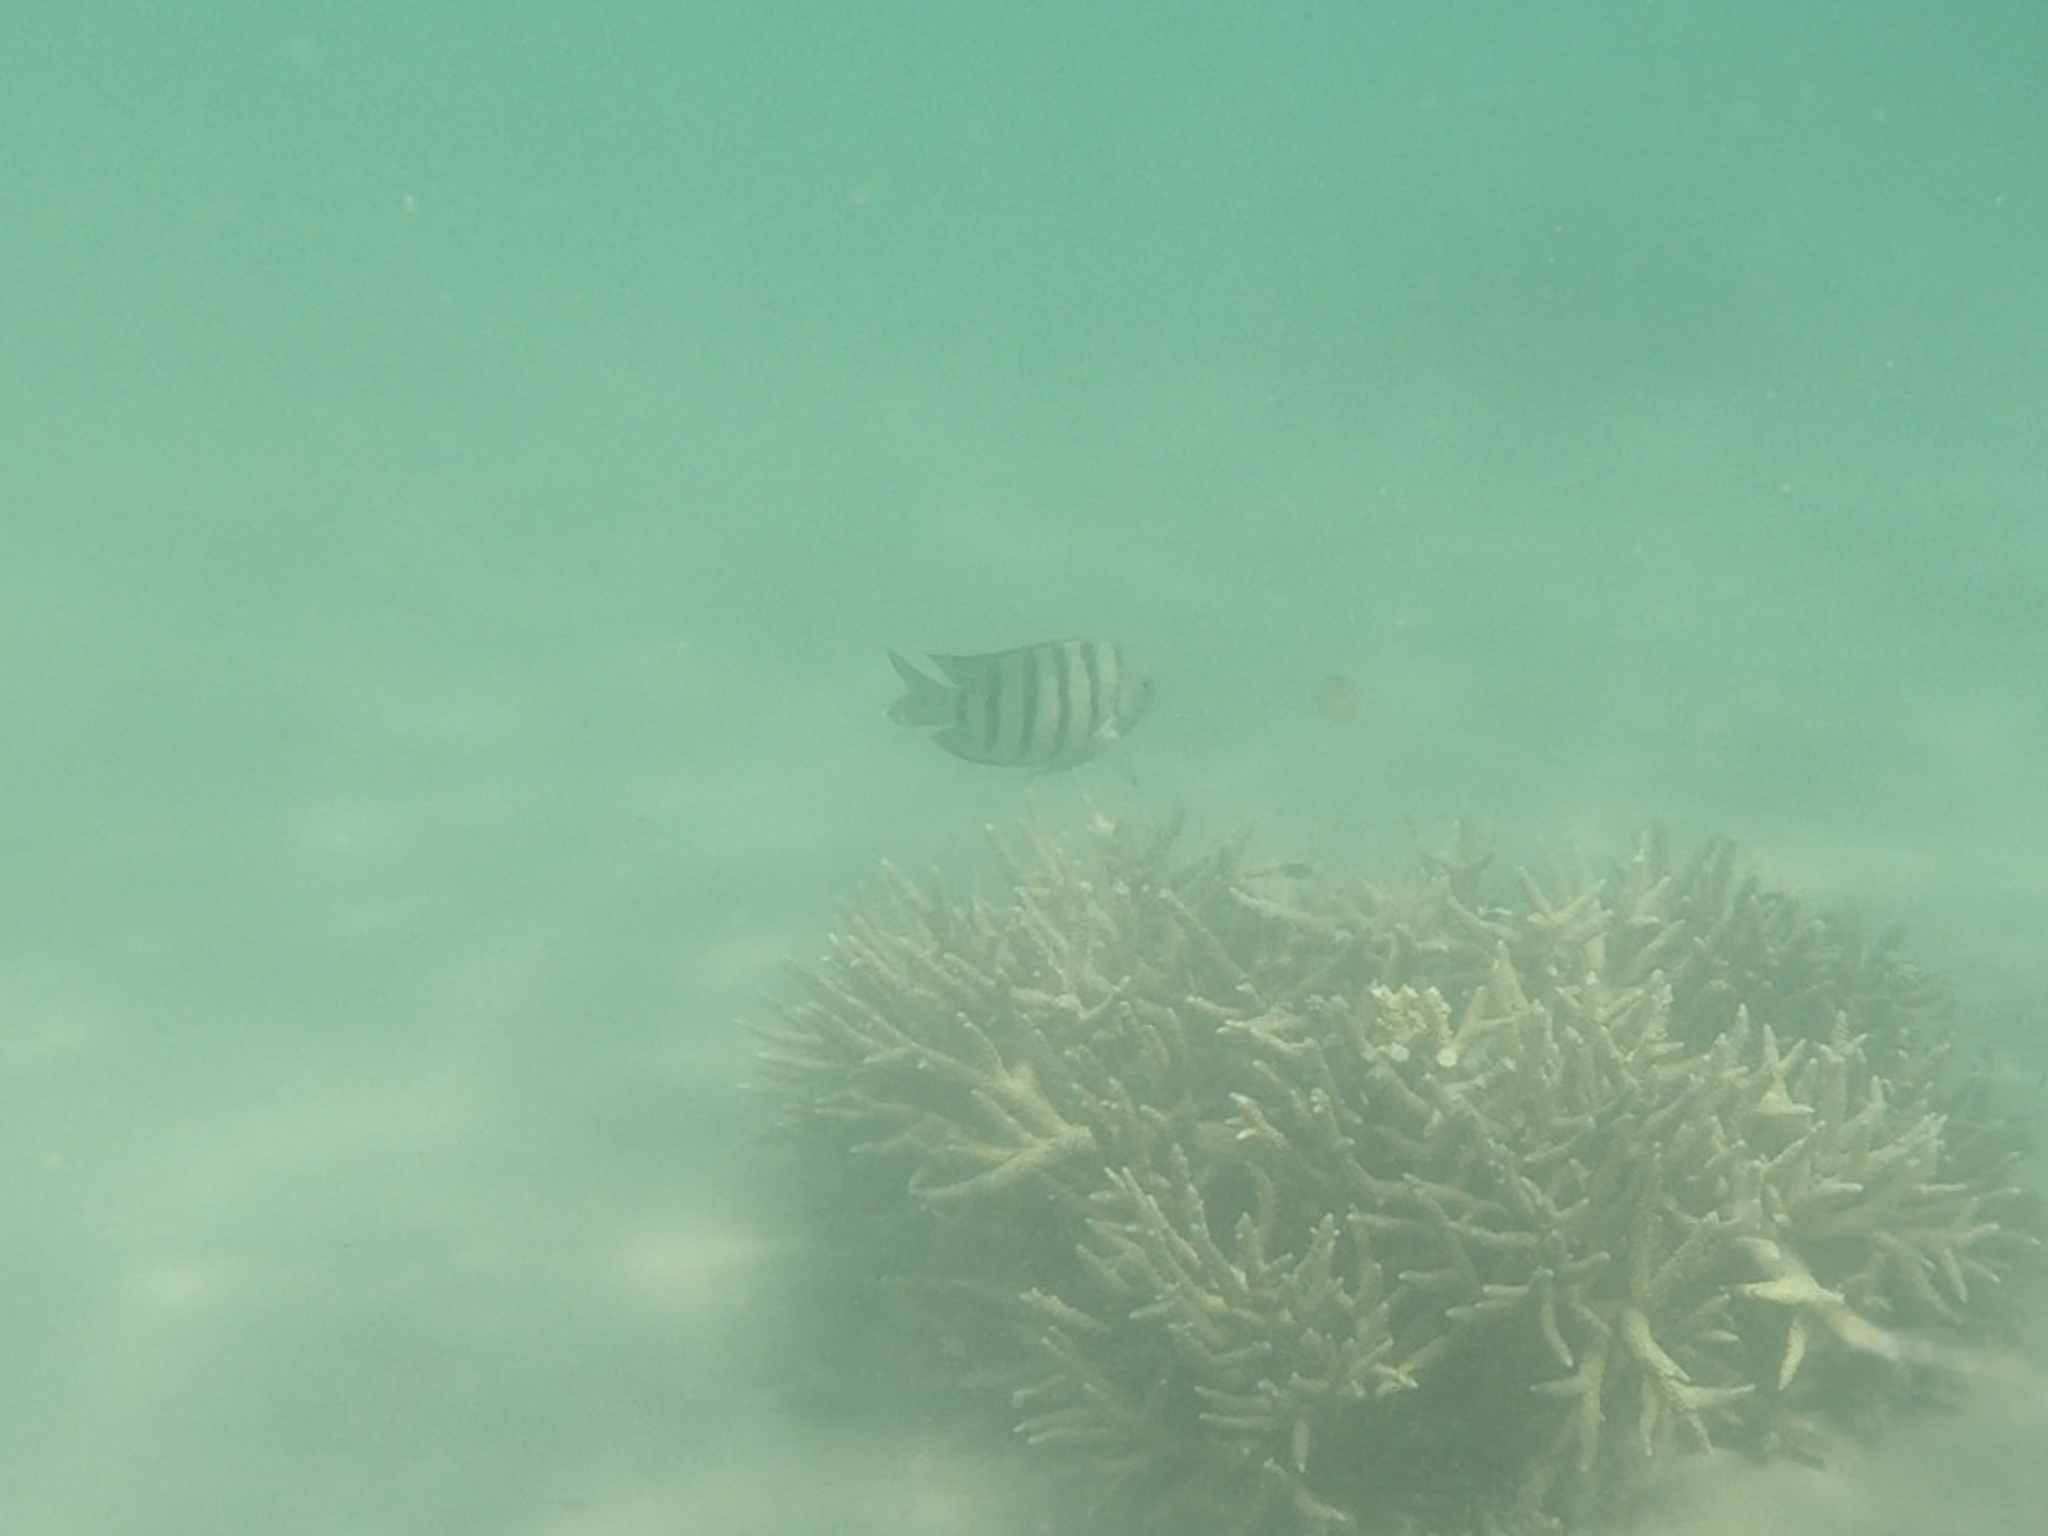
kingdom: Animalia
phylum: Chordata
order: Perciformes
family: Pomacentridae
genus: Abudefduf
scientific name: Abudefduf bengalensis
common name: Bengal sergeant
